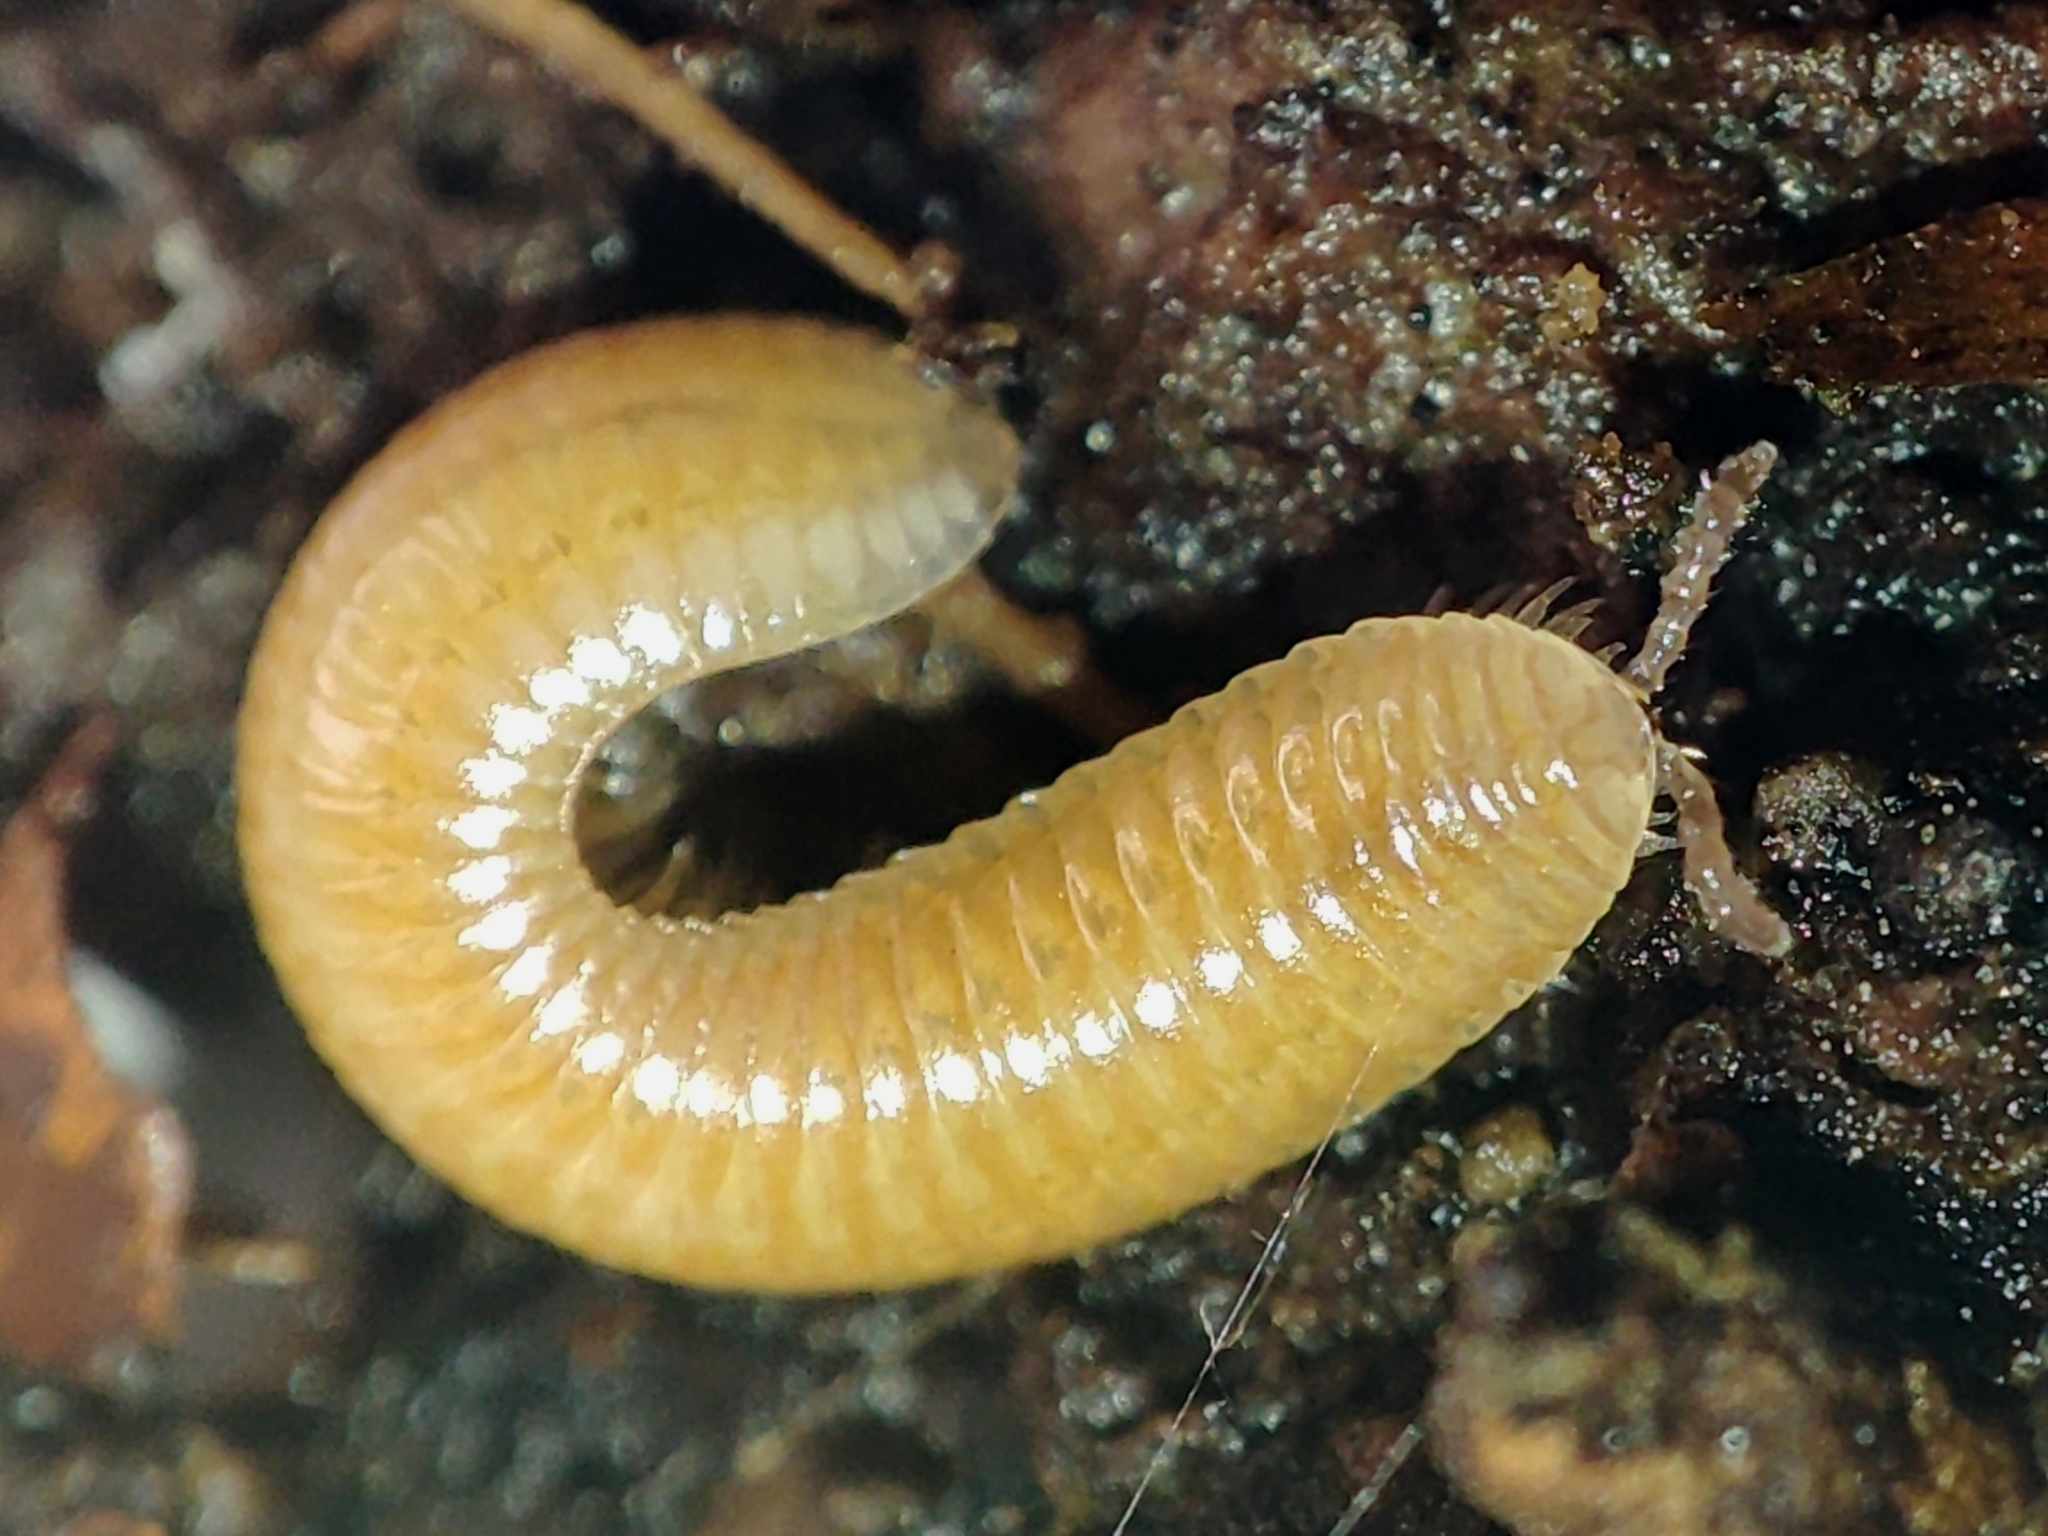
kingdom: Animalia
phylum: Arthropoda
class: Diplopoda
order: Polyzoniida
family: Polyzoniidae
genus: Polyzonium
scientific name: Polyzonium germanicum
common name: Boring millipede
